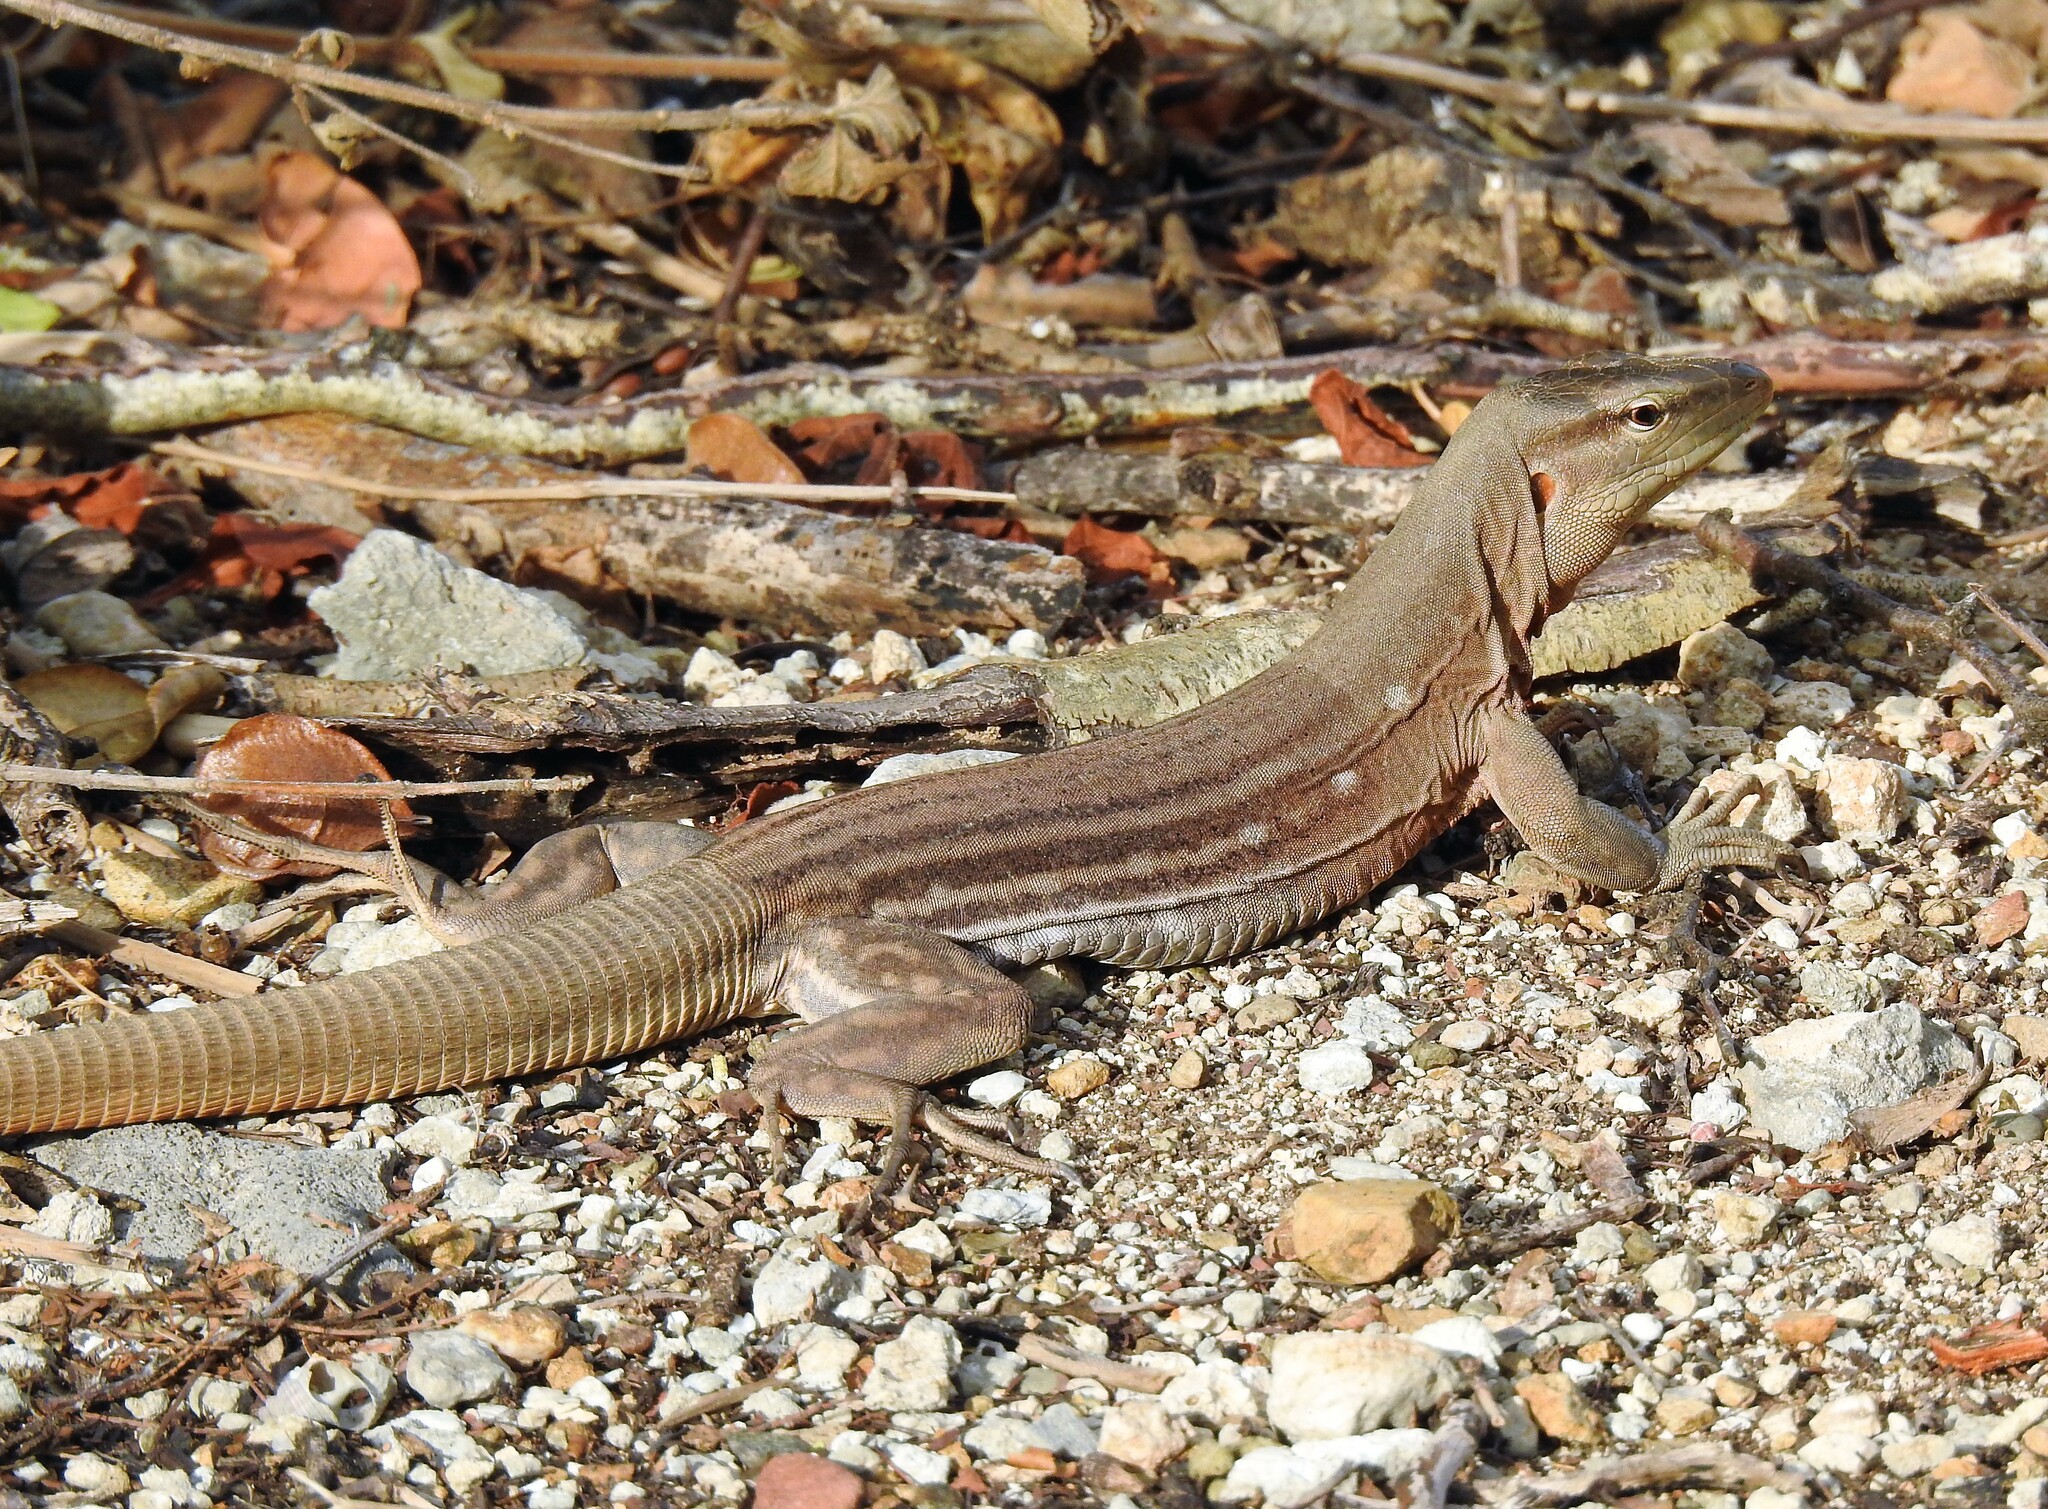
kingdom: Animalia
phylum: Chordata
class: Squamata
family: Teiidae
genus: Cnemidophorus
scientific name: Cnemidophorus murinus
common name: Laurent's whiptail
